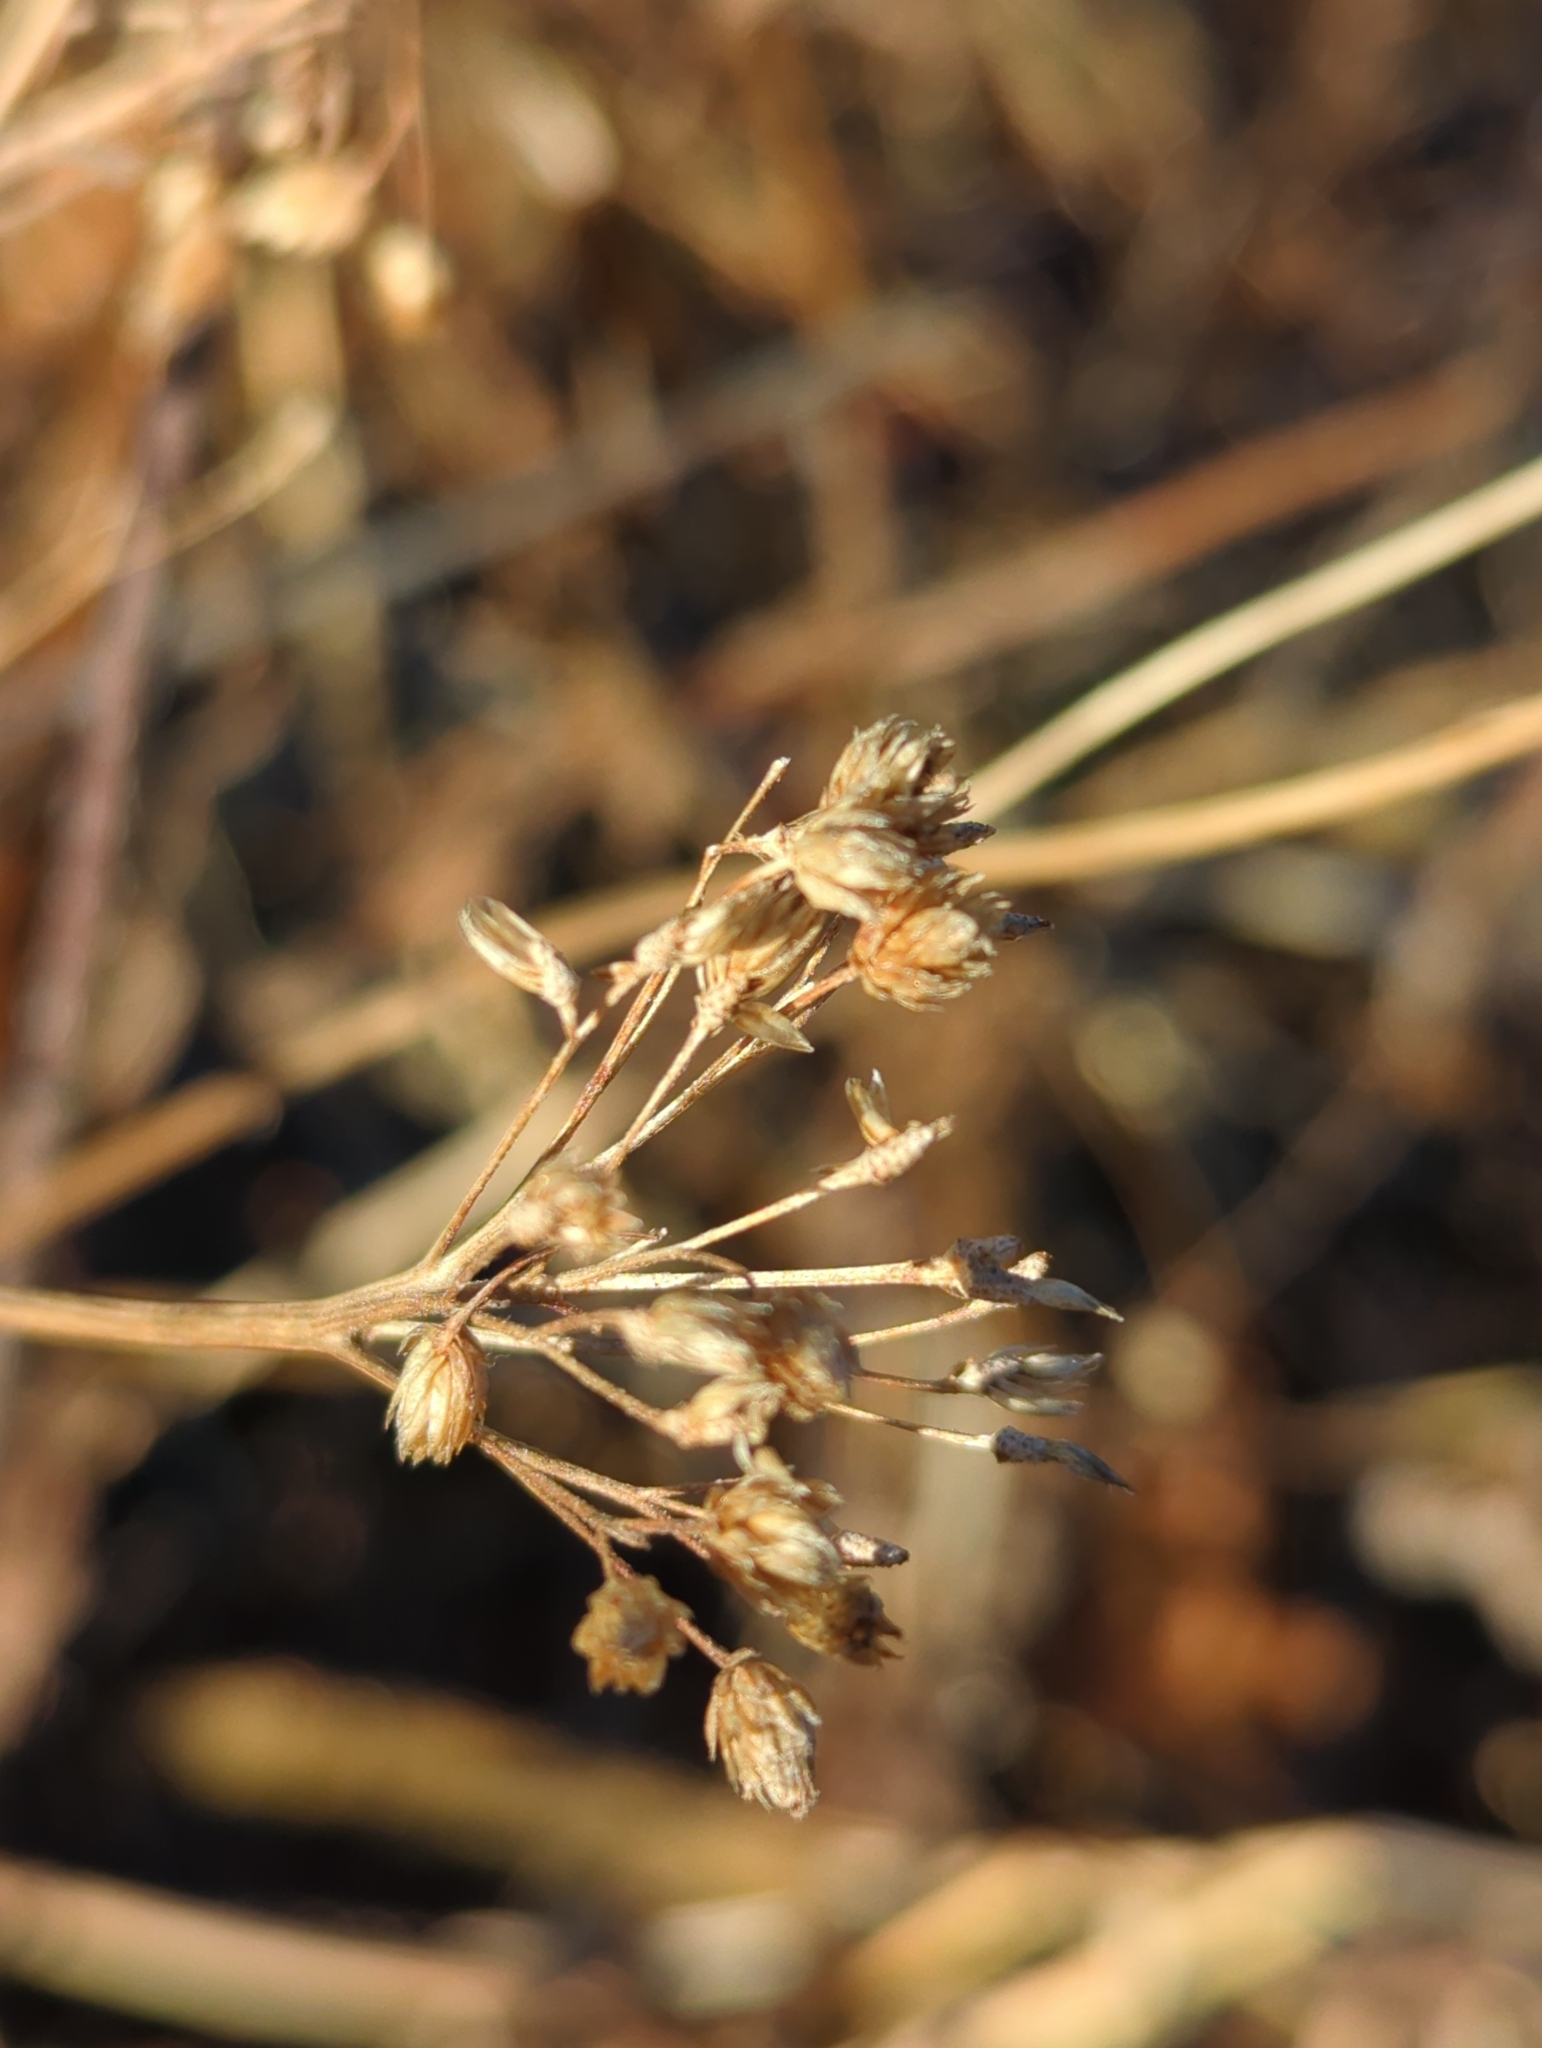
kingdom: Plantae
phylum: Tracheophyta
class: Magnoliopsida
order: Asterales
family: Asteraceae
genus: Achillea
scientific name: Achillea millefolium
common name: Yarrow
